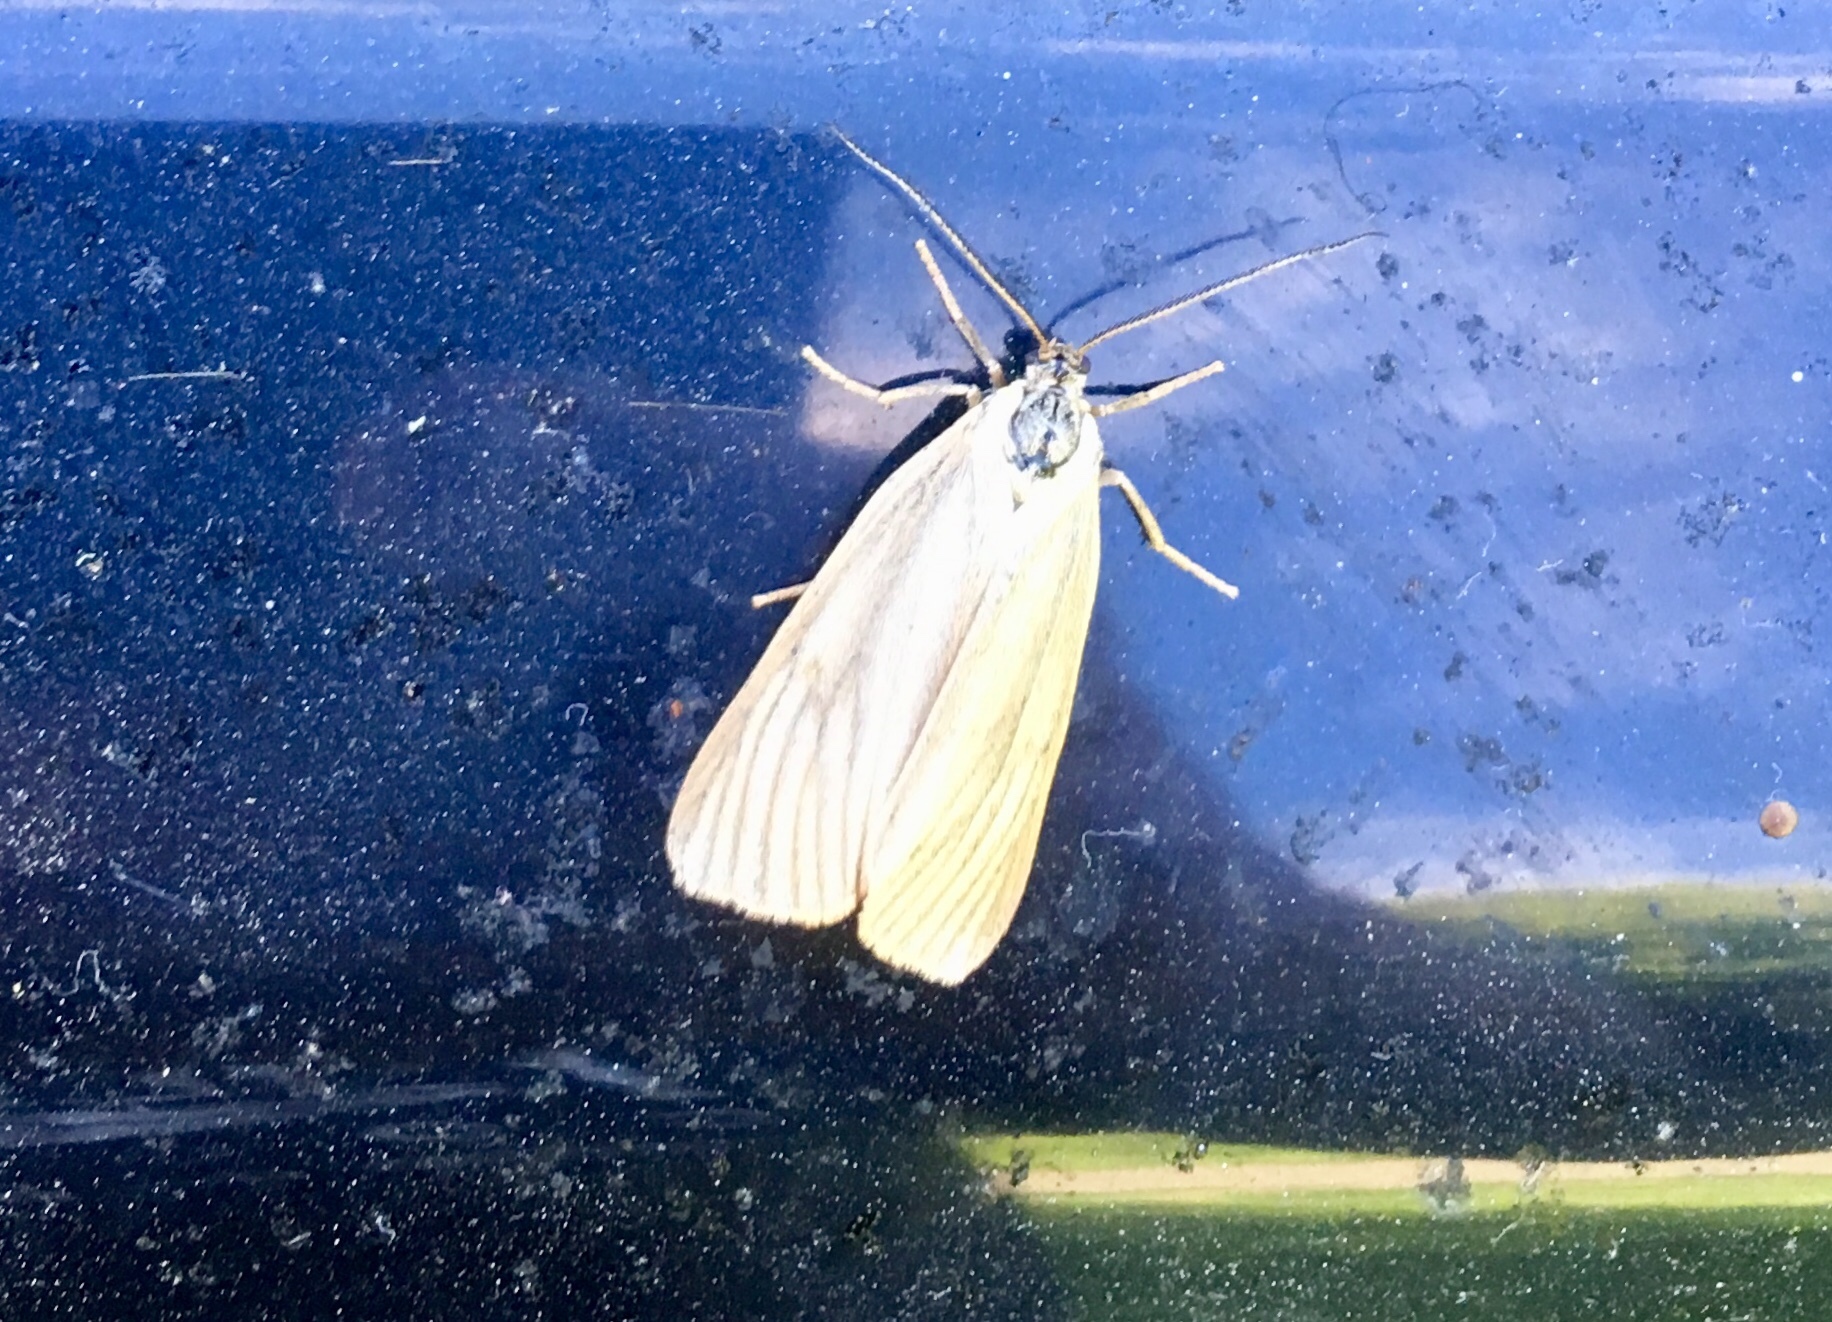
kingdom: Animalia
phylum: Arthropoda
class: Insecta
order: Lepidoptera
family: Notodontidae
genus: Phryganidia
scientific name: Phryganidia californica
